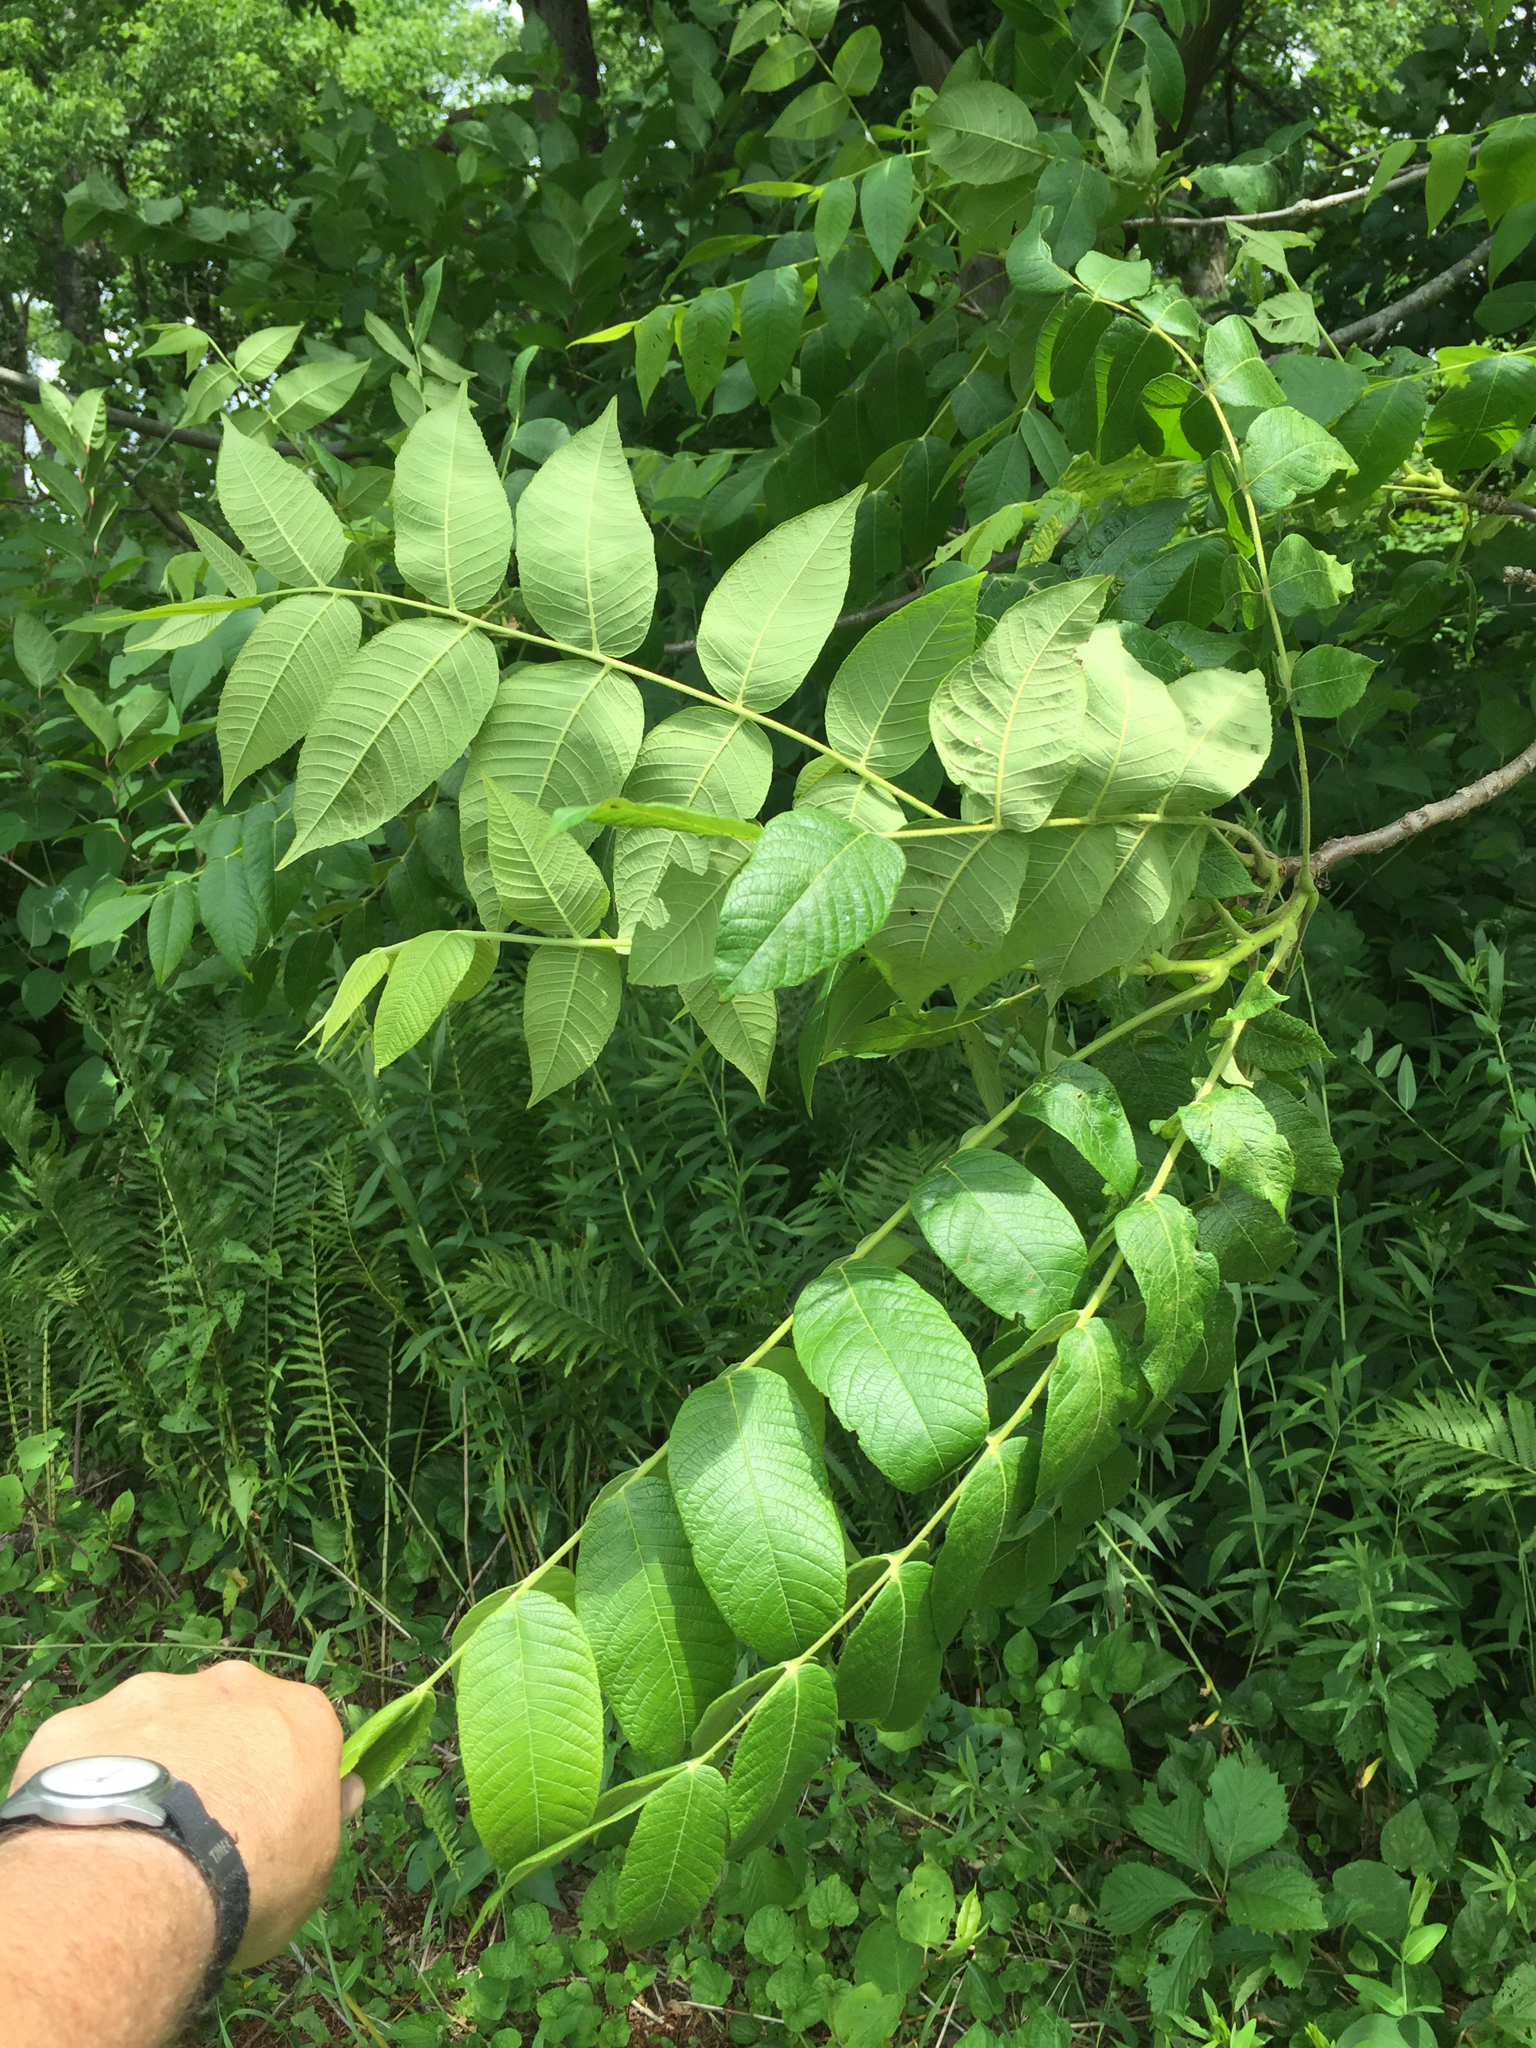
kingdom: Plantae
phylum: Tracheophyta
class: Magnoliopsida
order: Fagales
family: Juglandaceae
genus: Juglans
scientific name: Juglans cinerea
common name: Butternut
